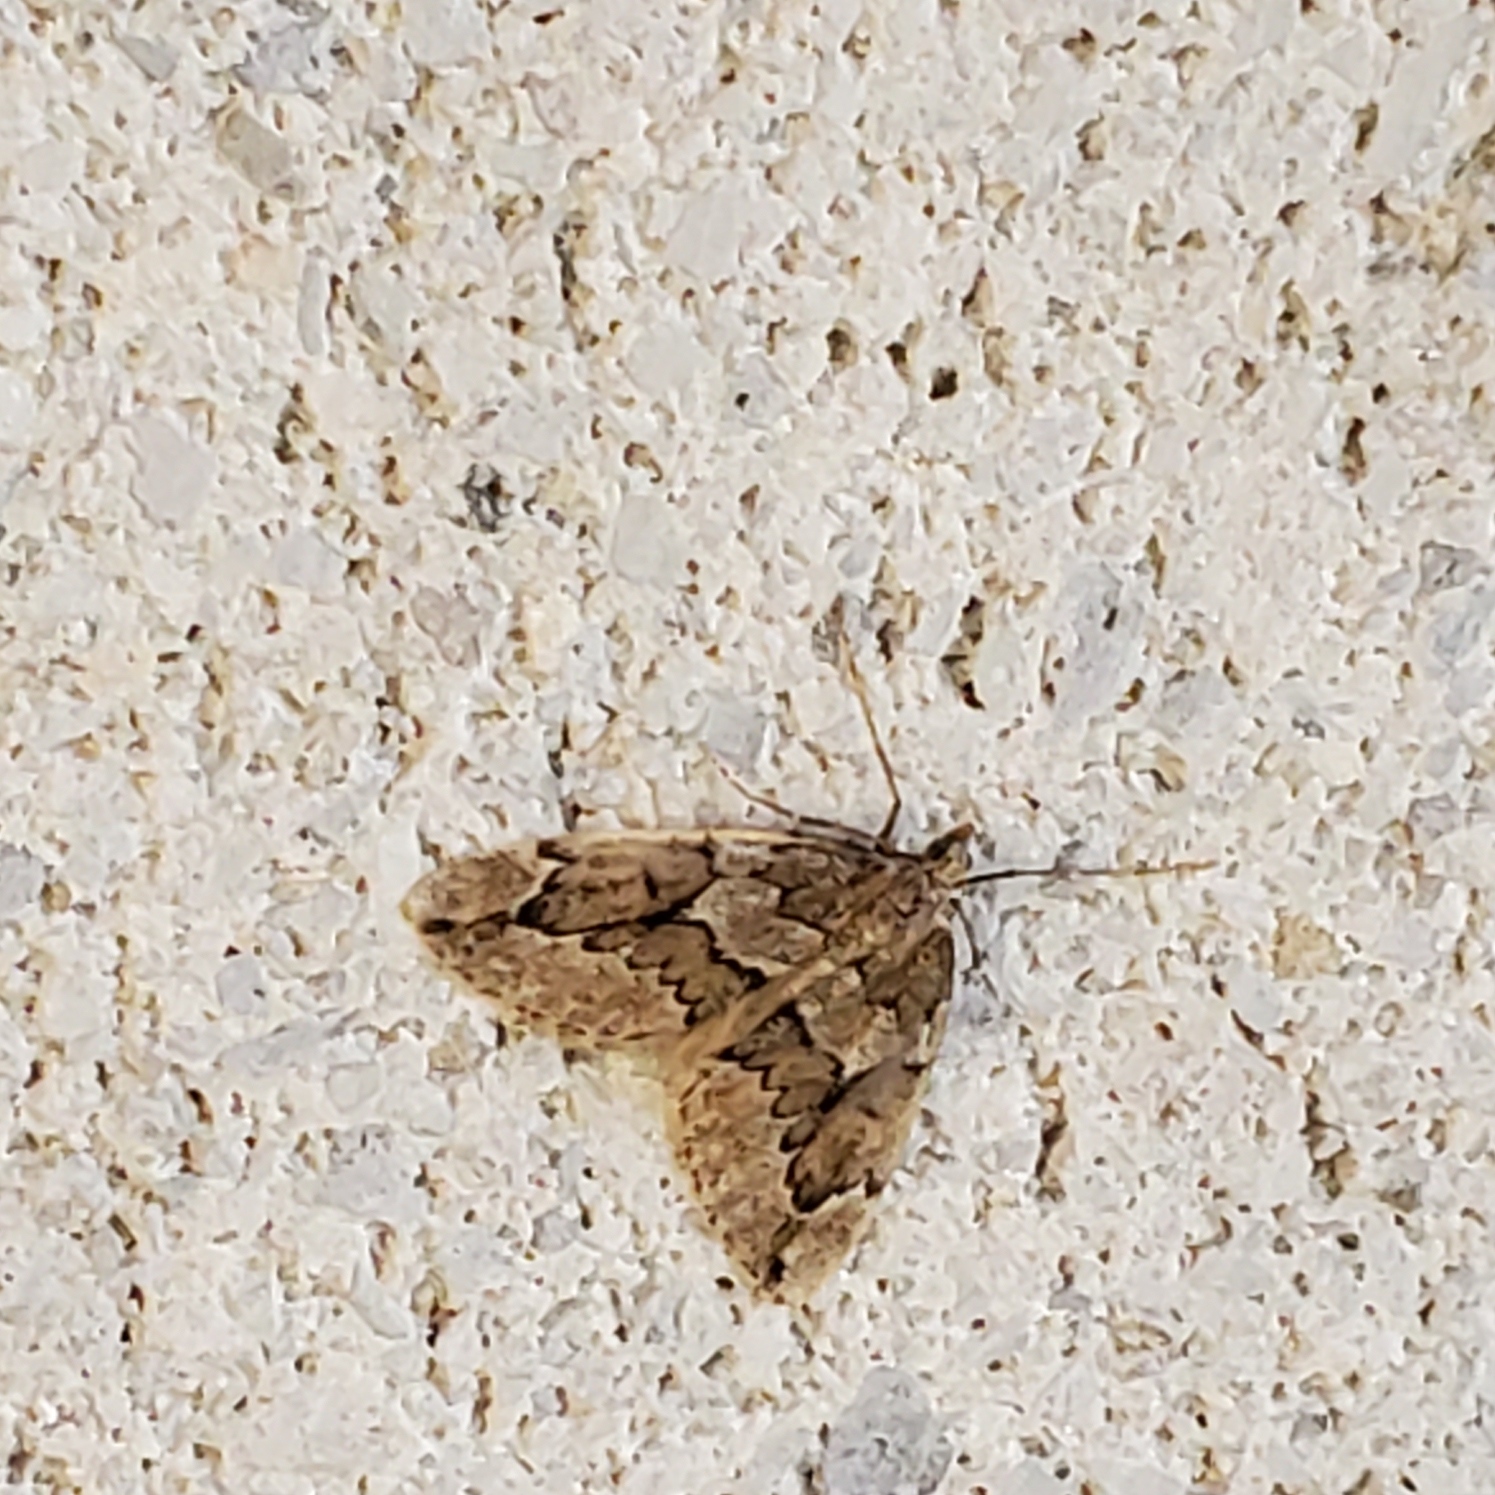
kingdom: Animalia
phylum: Arthropoda
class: Insecta
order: Lepidoptera
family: Geometridae
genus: Thera
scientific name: Thera juniperata
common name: Juniper carpet
